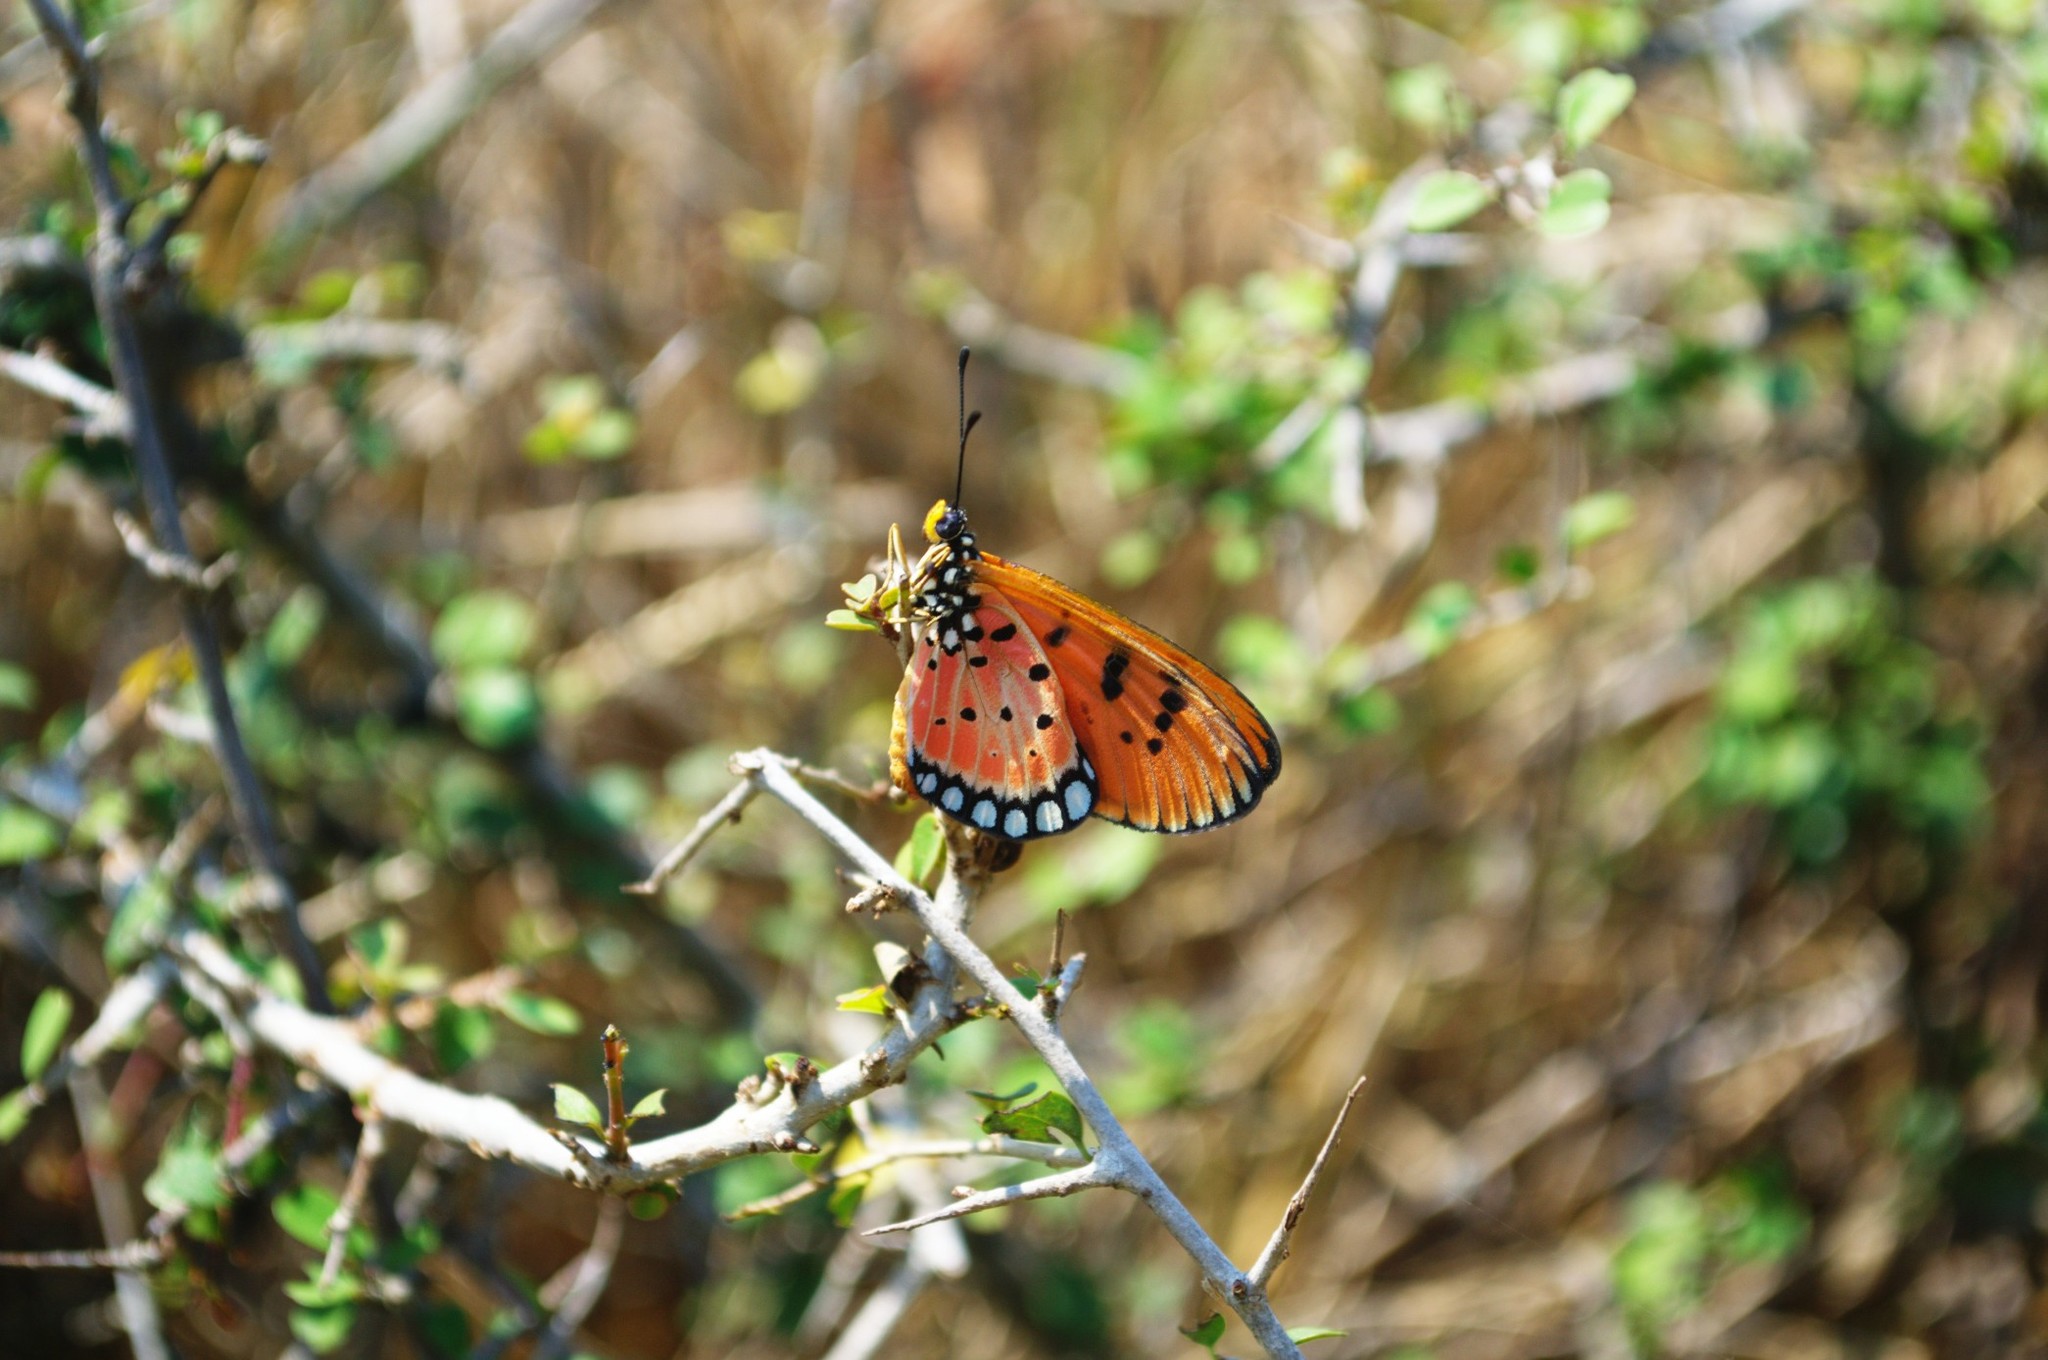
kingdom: Animalia
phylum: Arthropoda
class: Insecta
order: Lepidoptera
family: Nymphalidae
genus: Acraea
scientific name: Acraea terpsicore
